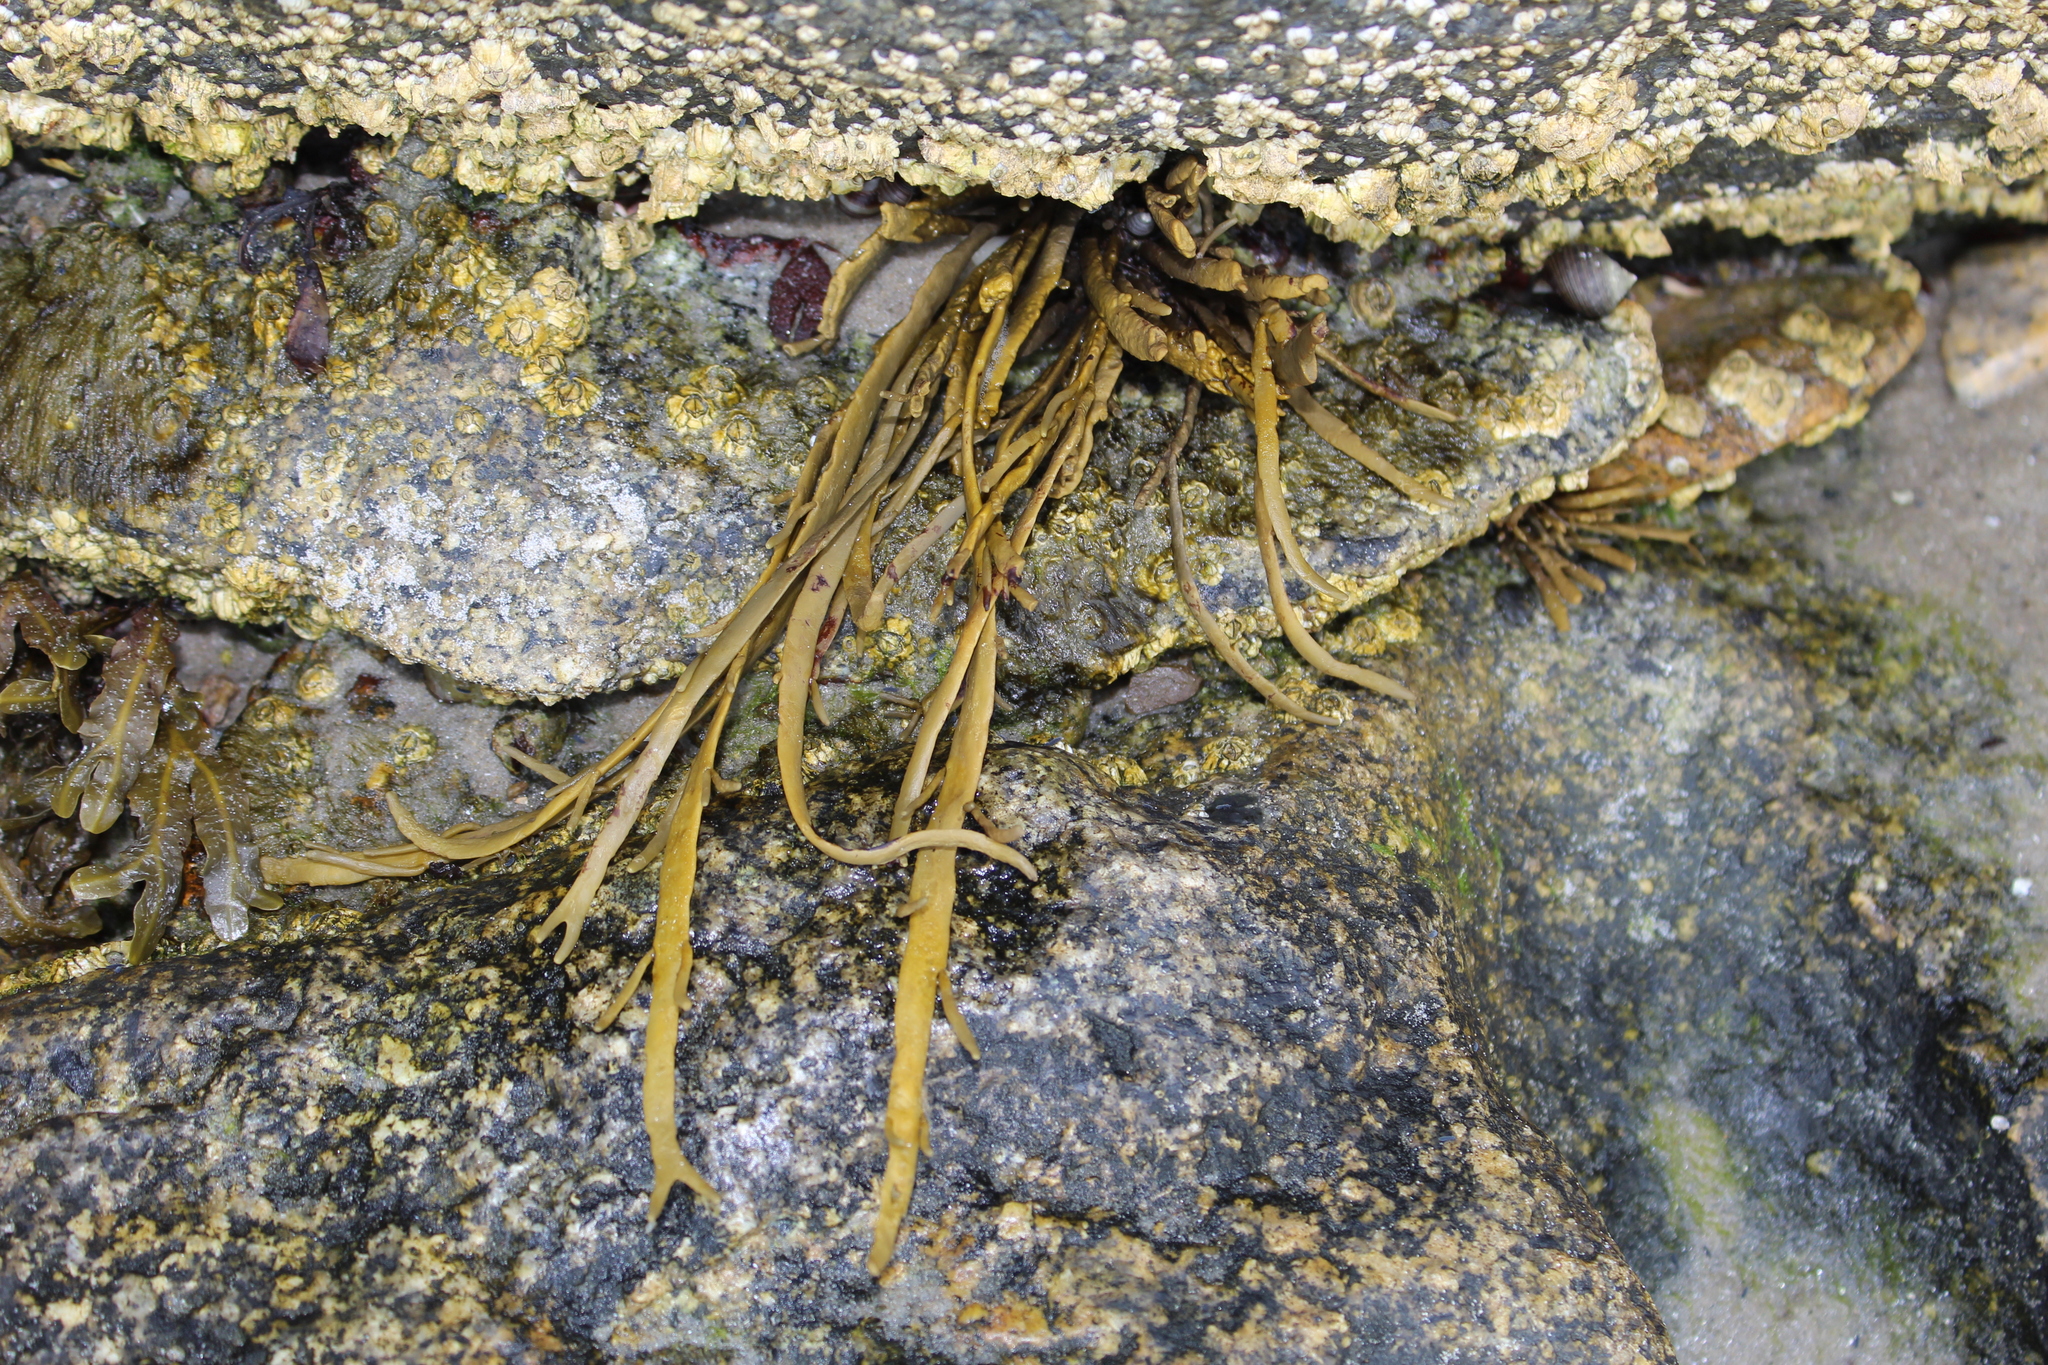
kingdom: Chromista
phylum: Ochrophyta
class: Phaeophyceae
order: Fucales
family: Fucaceae
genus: Ascophyllum
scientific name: Ascophyllum nodosum
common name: Knotted wrack
